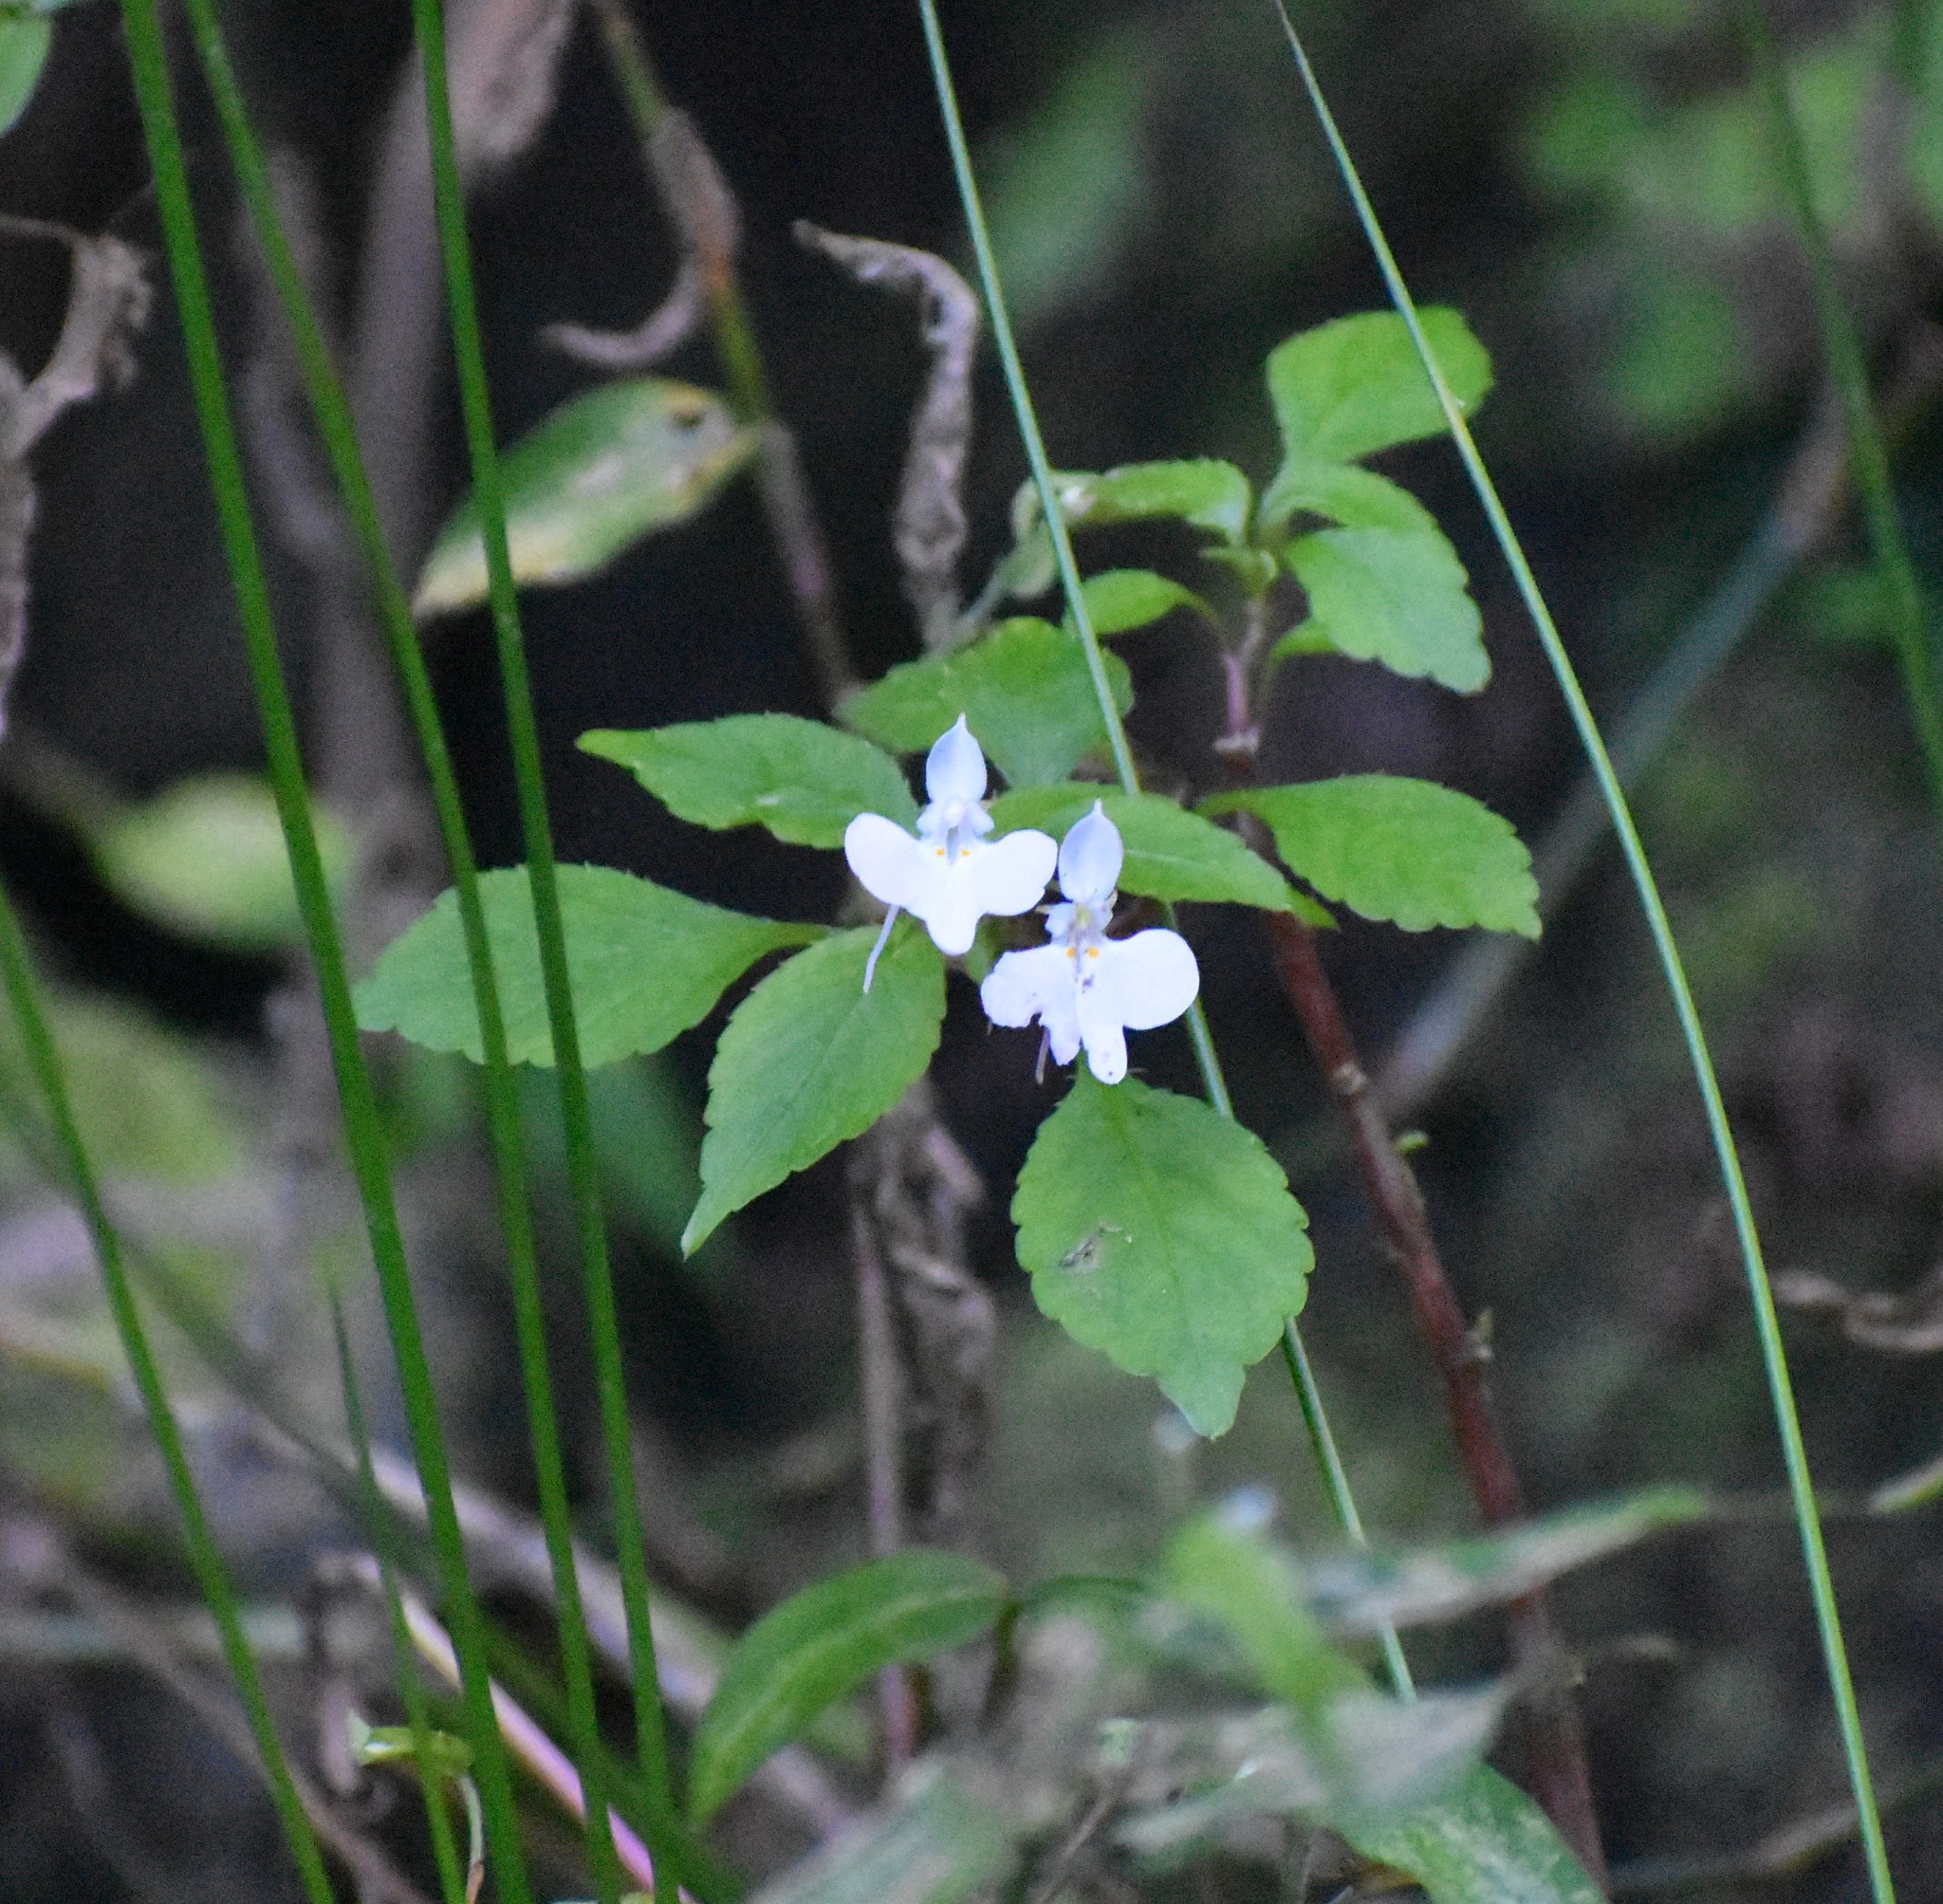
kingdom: Plantae
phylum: Tracheophyta
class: Magnoliopsida
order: Ericales
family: Balsaminaceae
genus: Impatiens
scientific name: Impatiens hochstetteri
